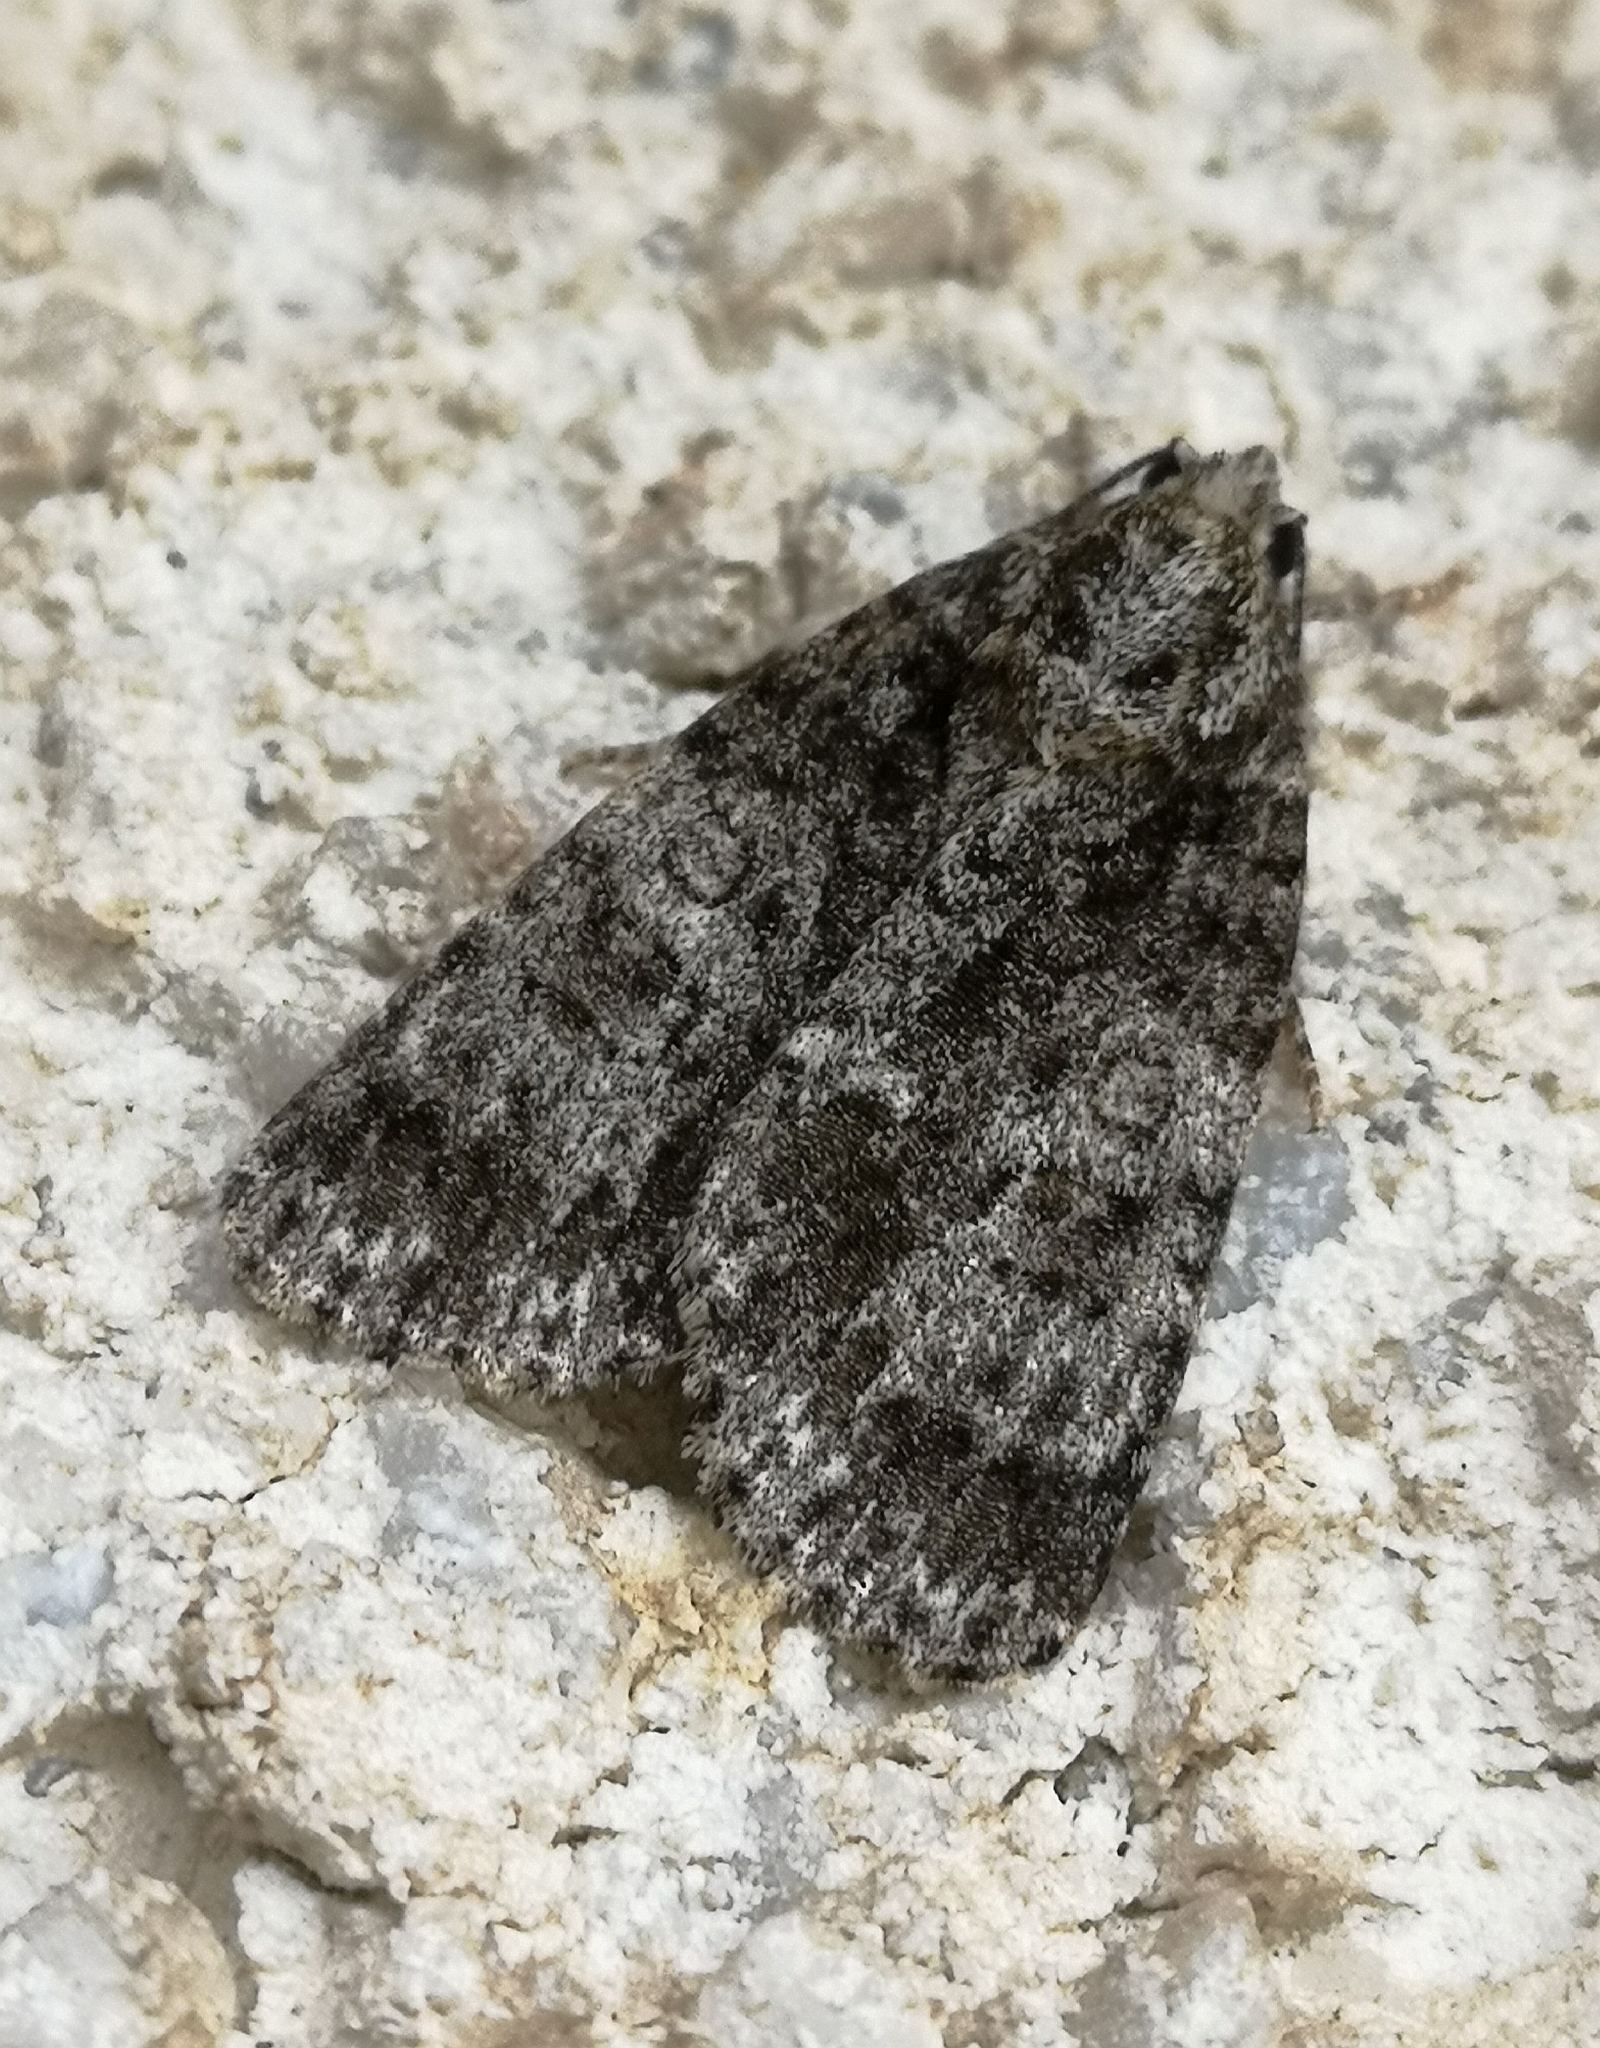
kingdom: Animalia
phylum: Arthropoda
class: Insecta
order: Lepidoptera
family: Noctuidae
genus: Acronicta
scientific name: Acronicta rumicis
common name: Knot grass
